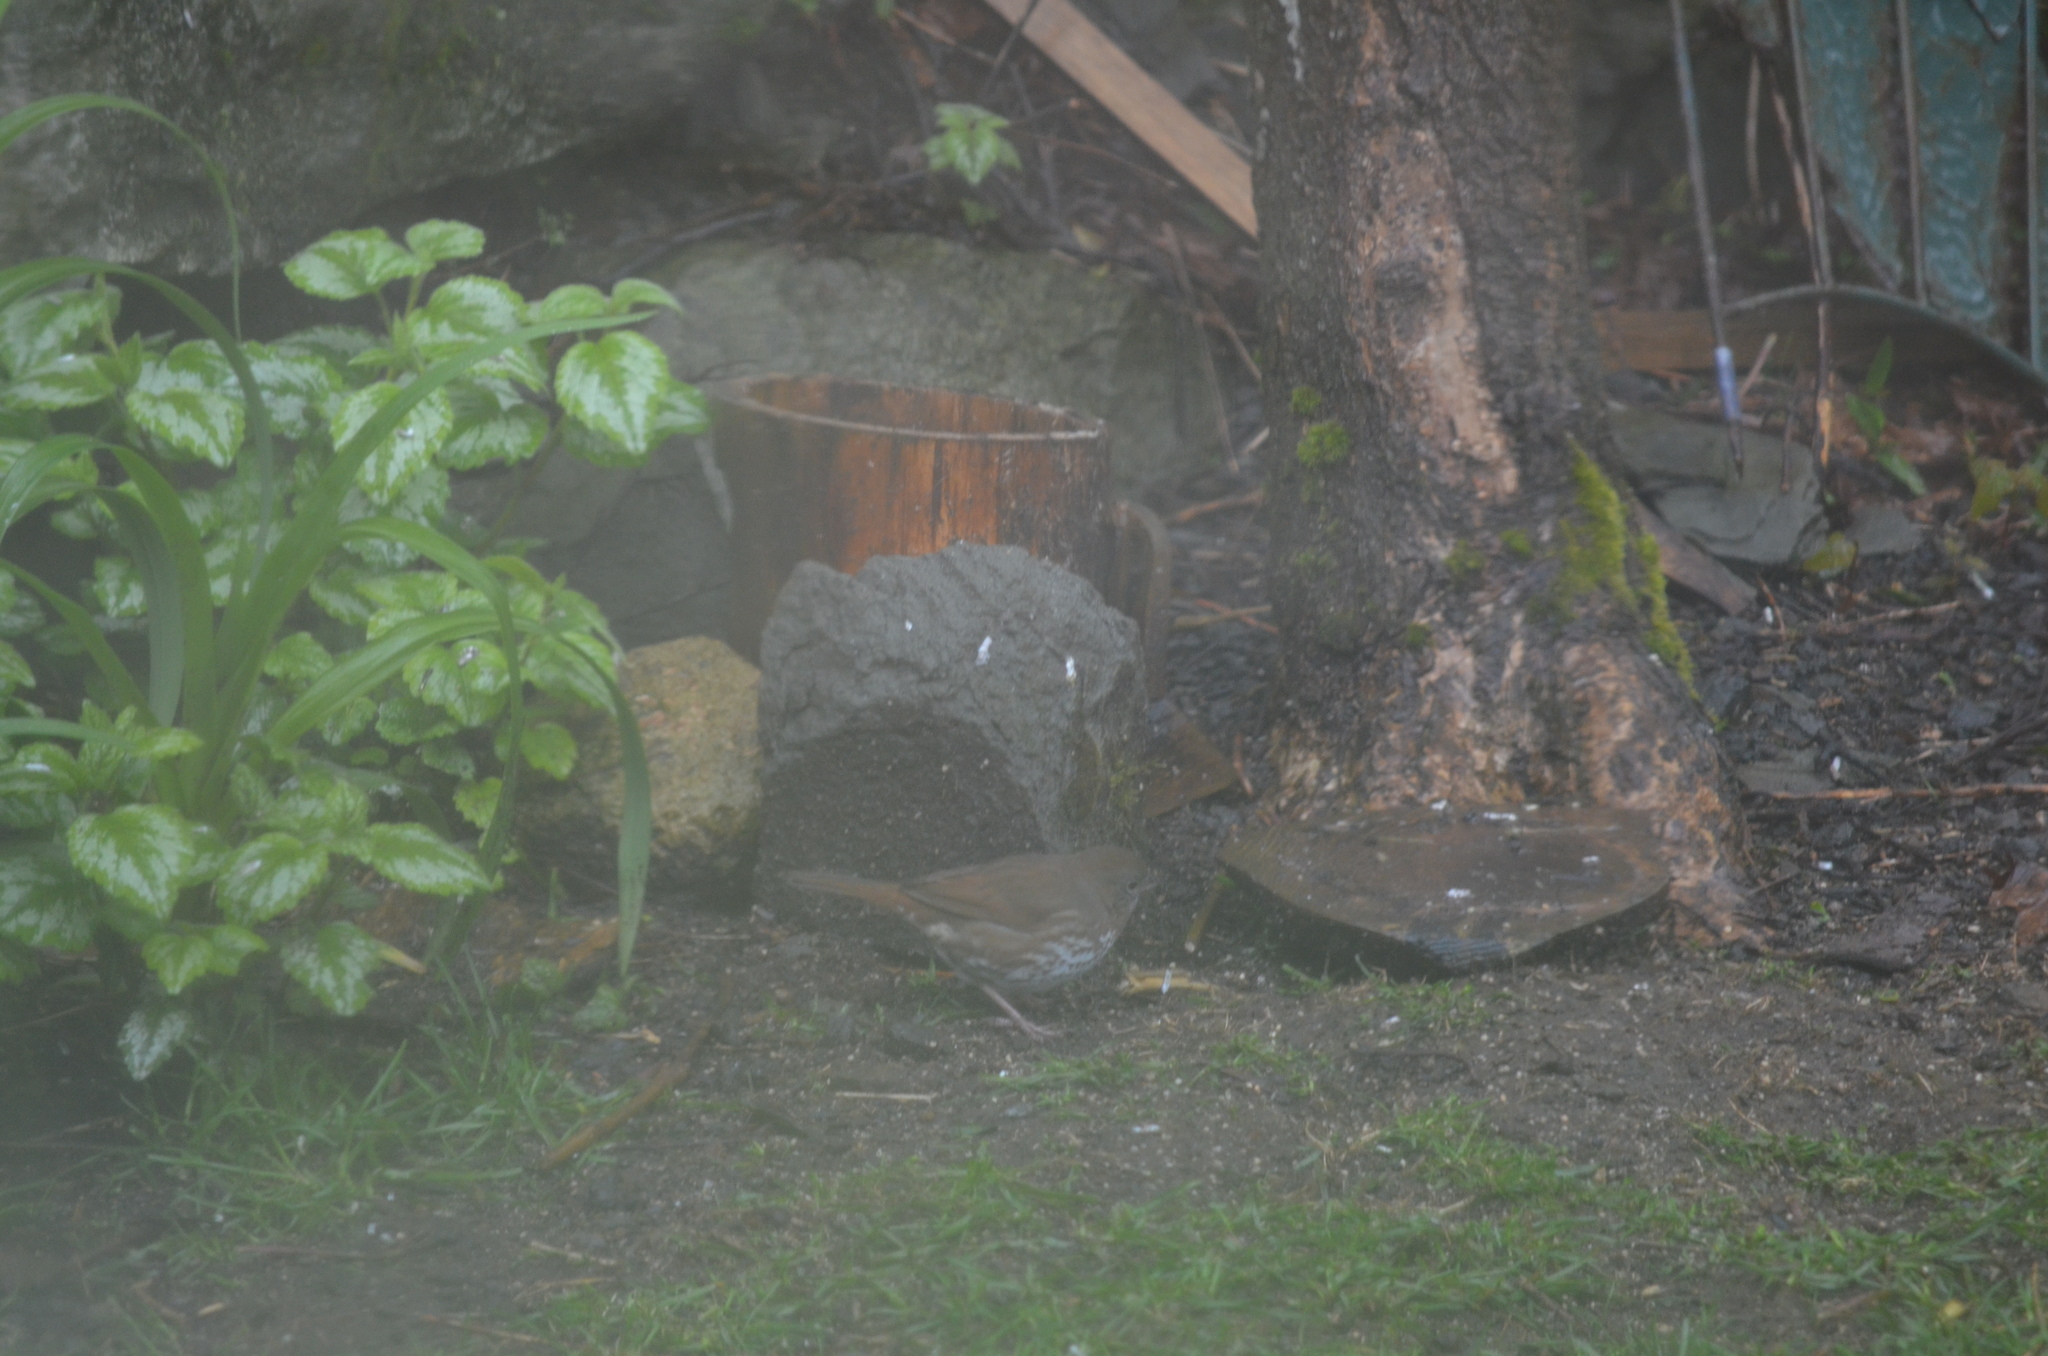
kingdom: Animalia
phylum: Chordata
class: Aves
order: Passeriformes
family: Passerellidae
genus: Passerella
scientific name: Passerella iliaca
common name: Fox sparrow
